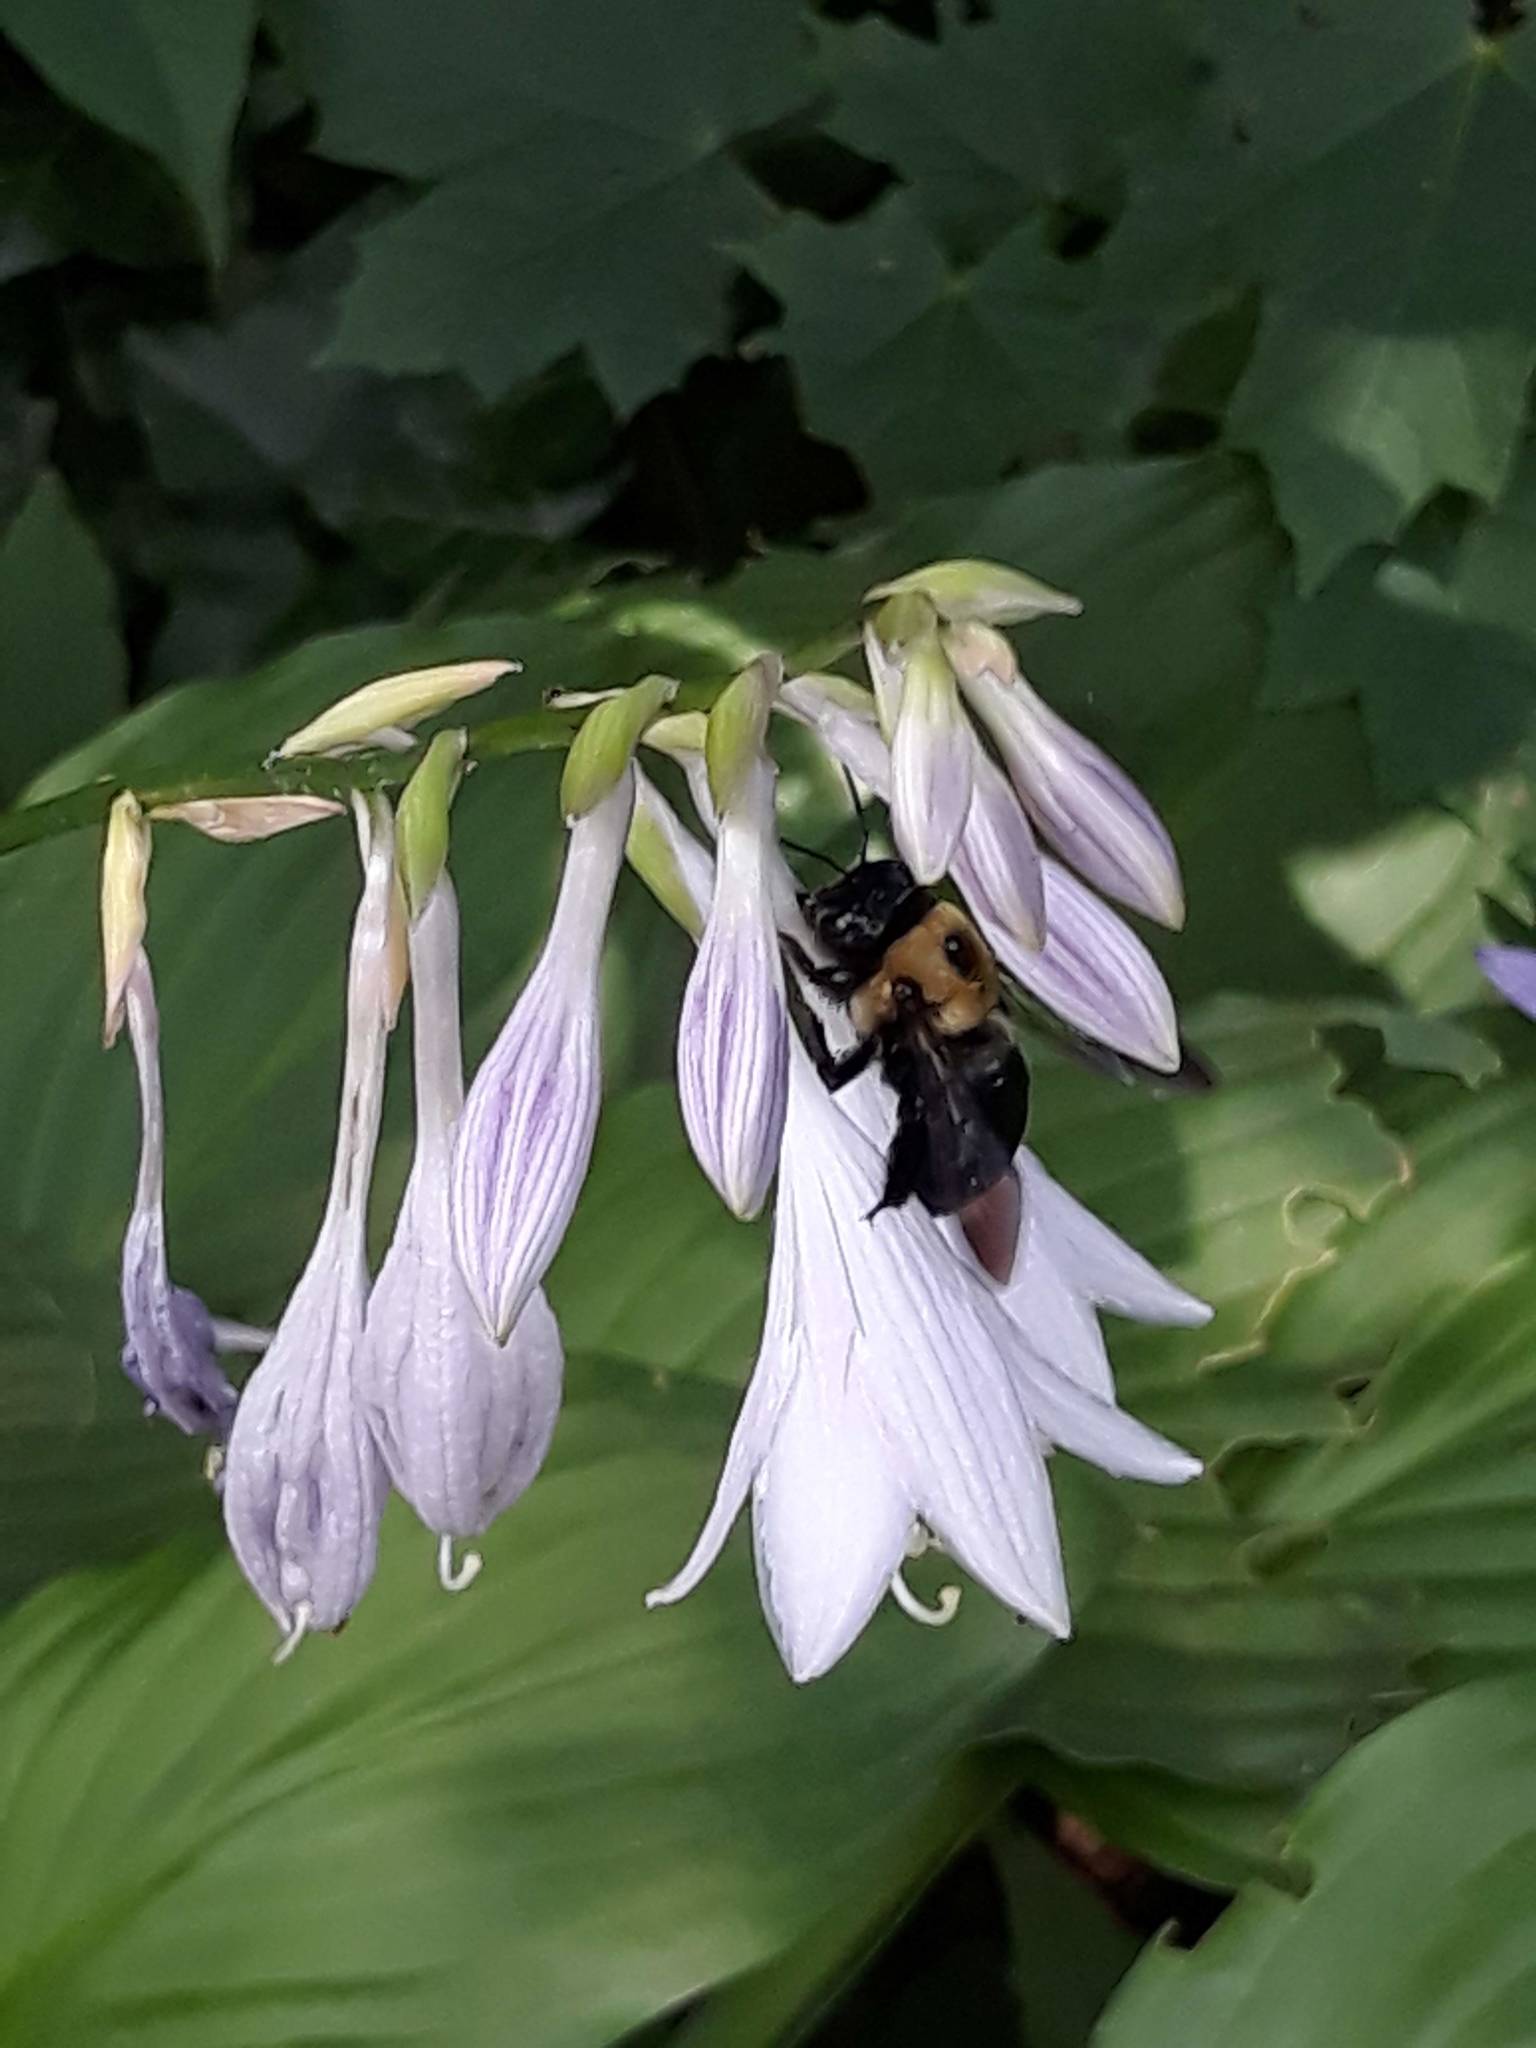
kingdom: Animalia
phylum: Arthropoda
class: Insecta
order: Hymenoptera
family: Apidae
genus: Xylocopa
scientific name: Xylocopa virginica
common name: Carpenter bee
